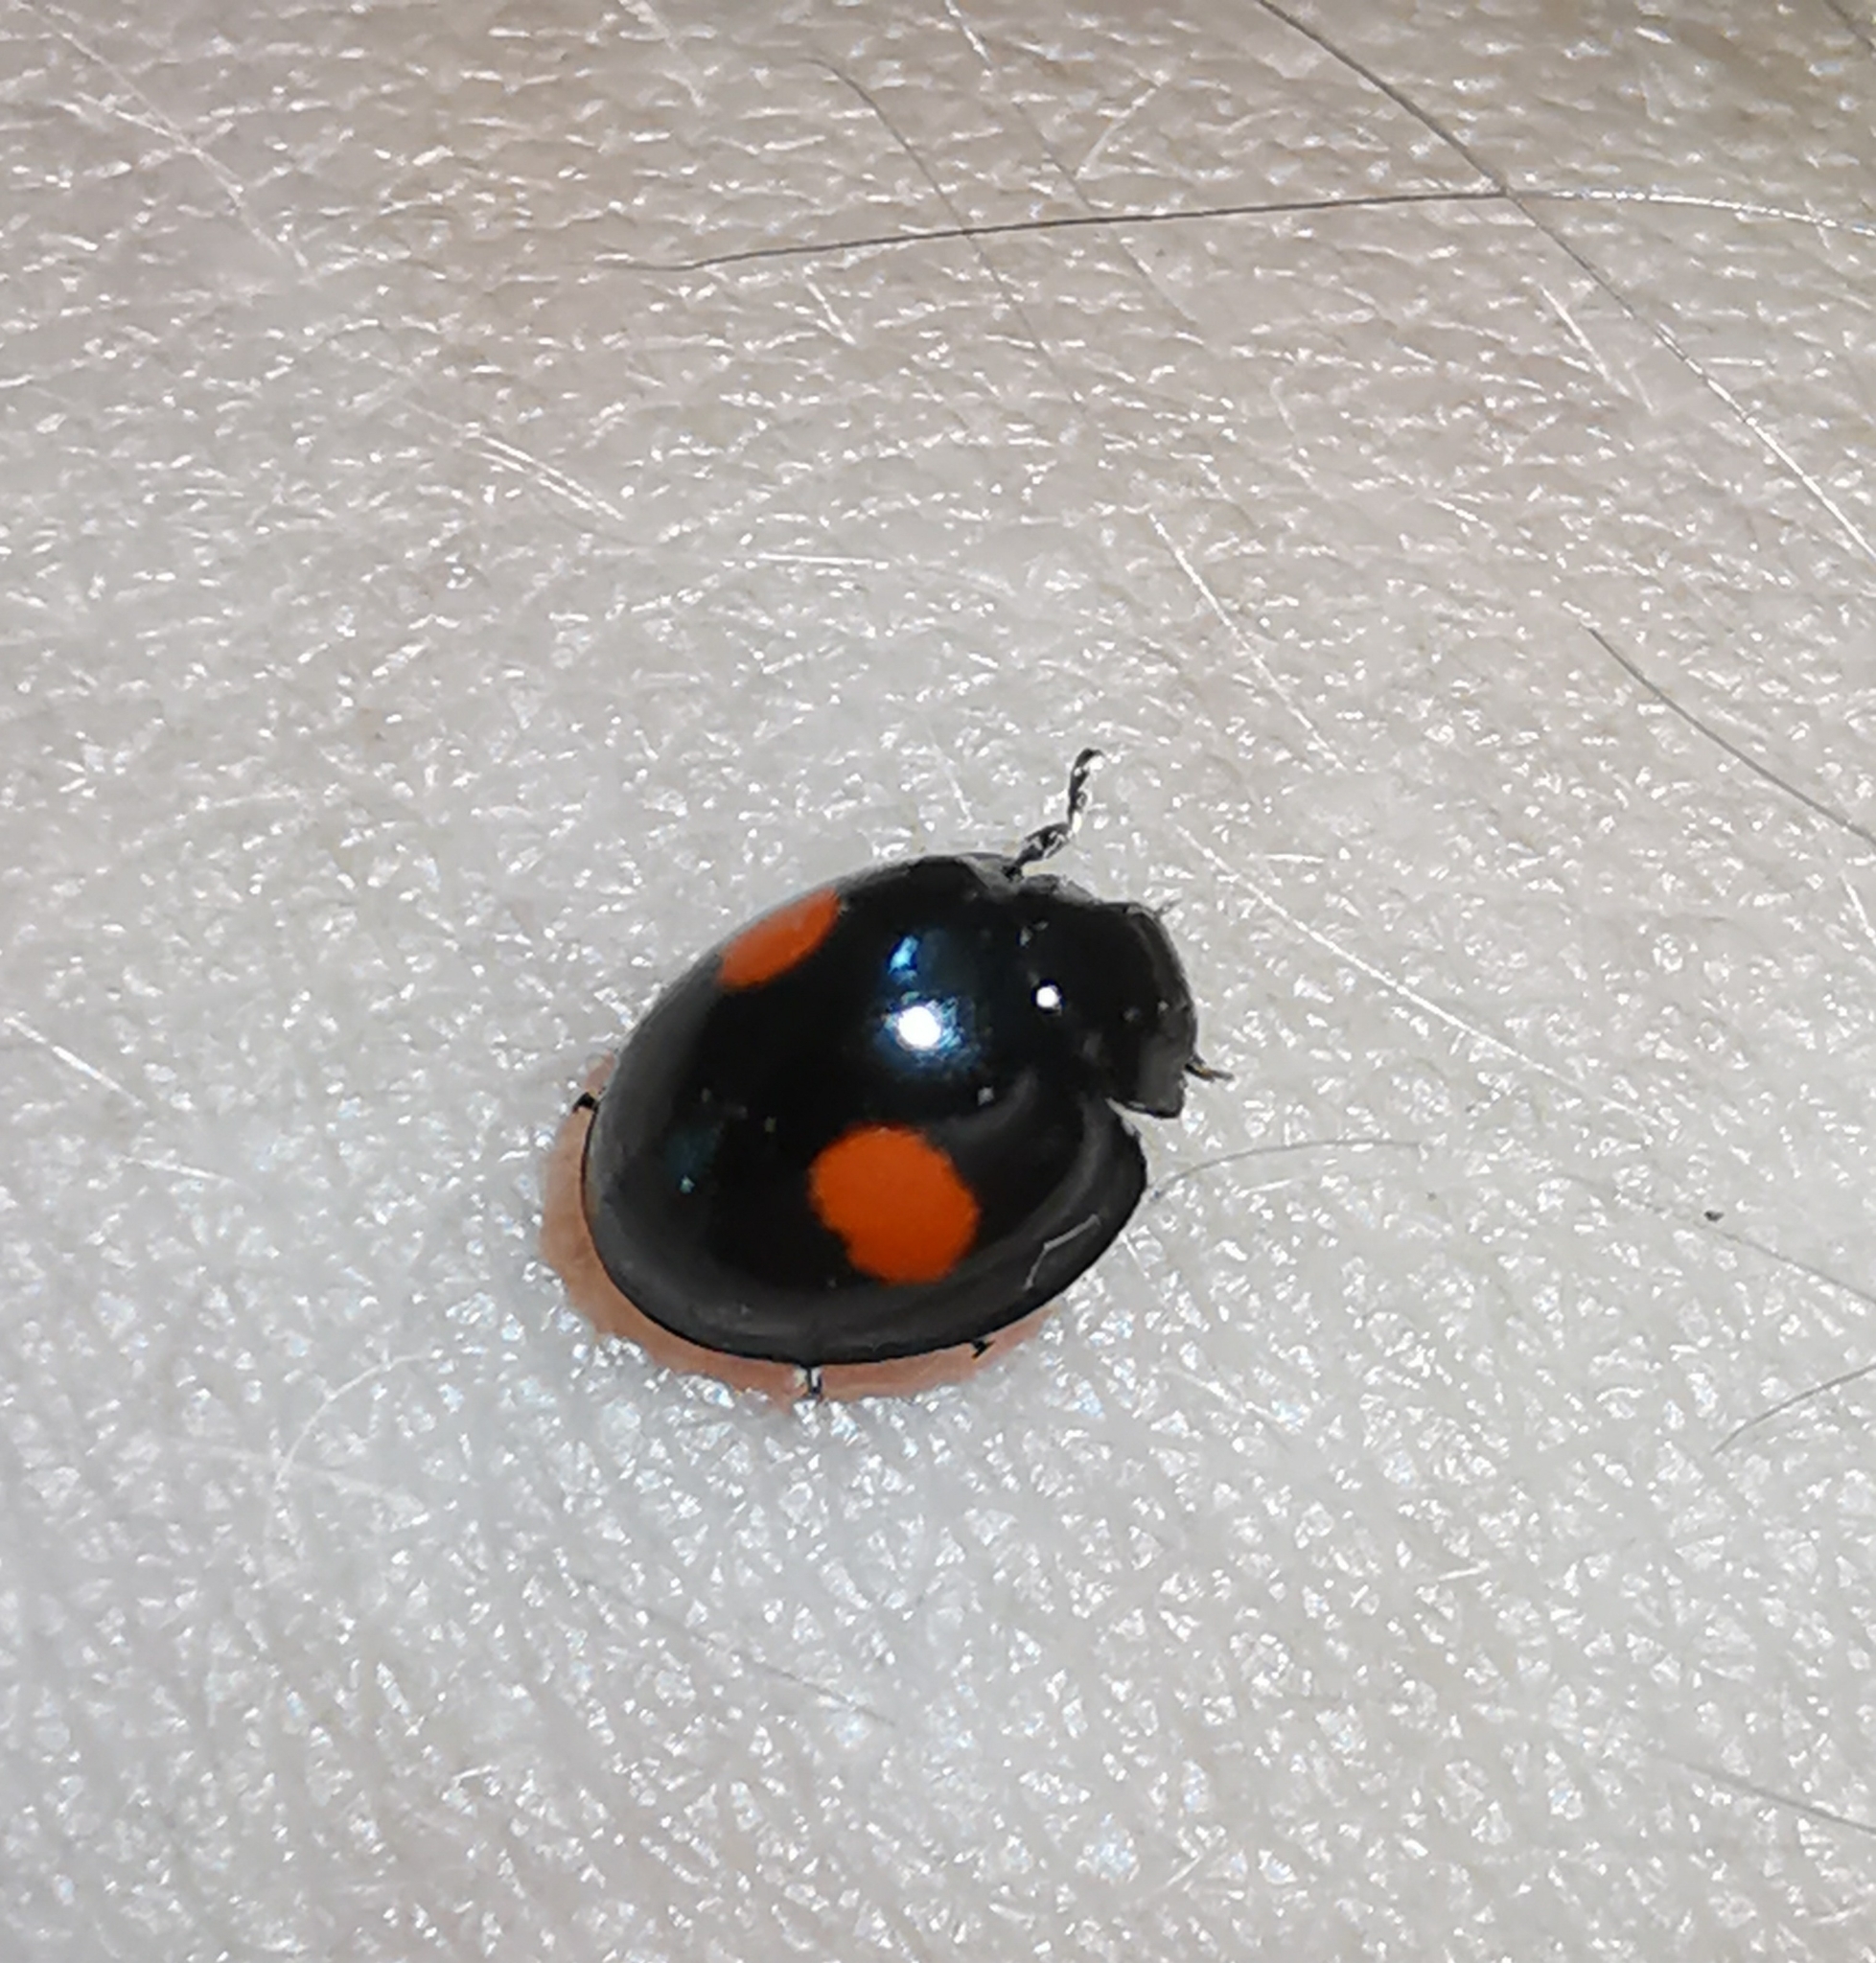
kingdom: Animalia
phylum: Arthropoda
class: Insecta
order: Coleoptera
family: Coccinellidae
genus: Chilocorus
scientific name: Chilocorus renipustulatus
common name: Kidney-spot ladybird
